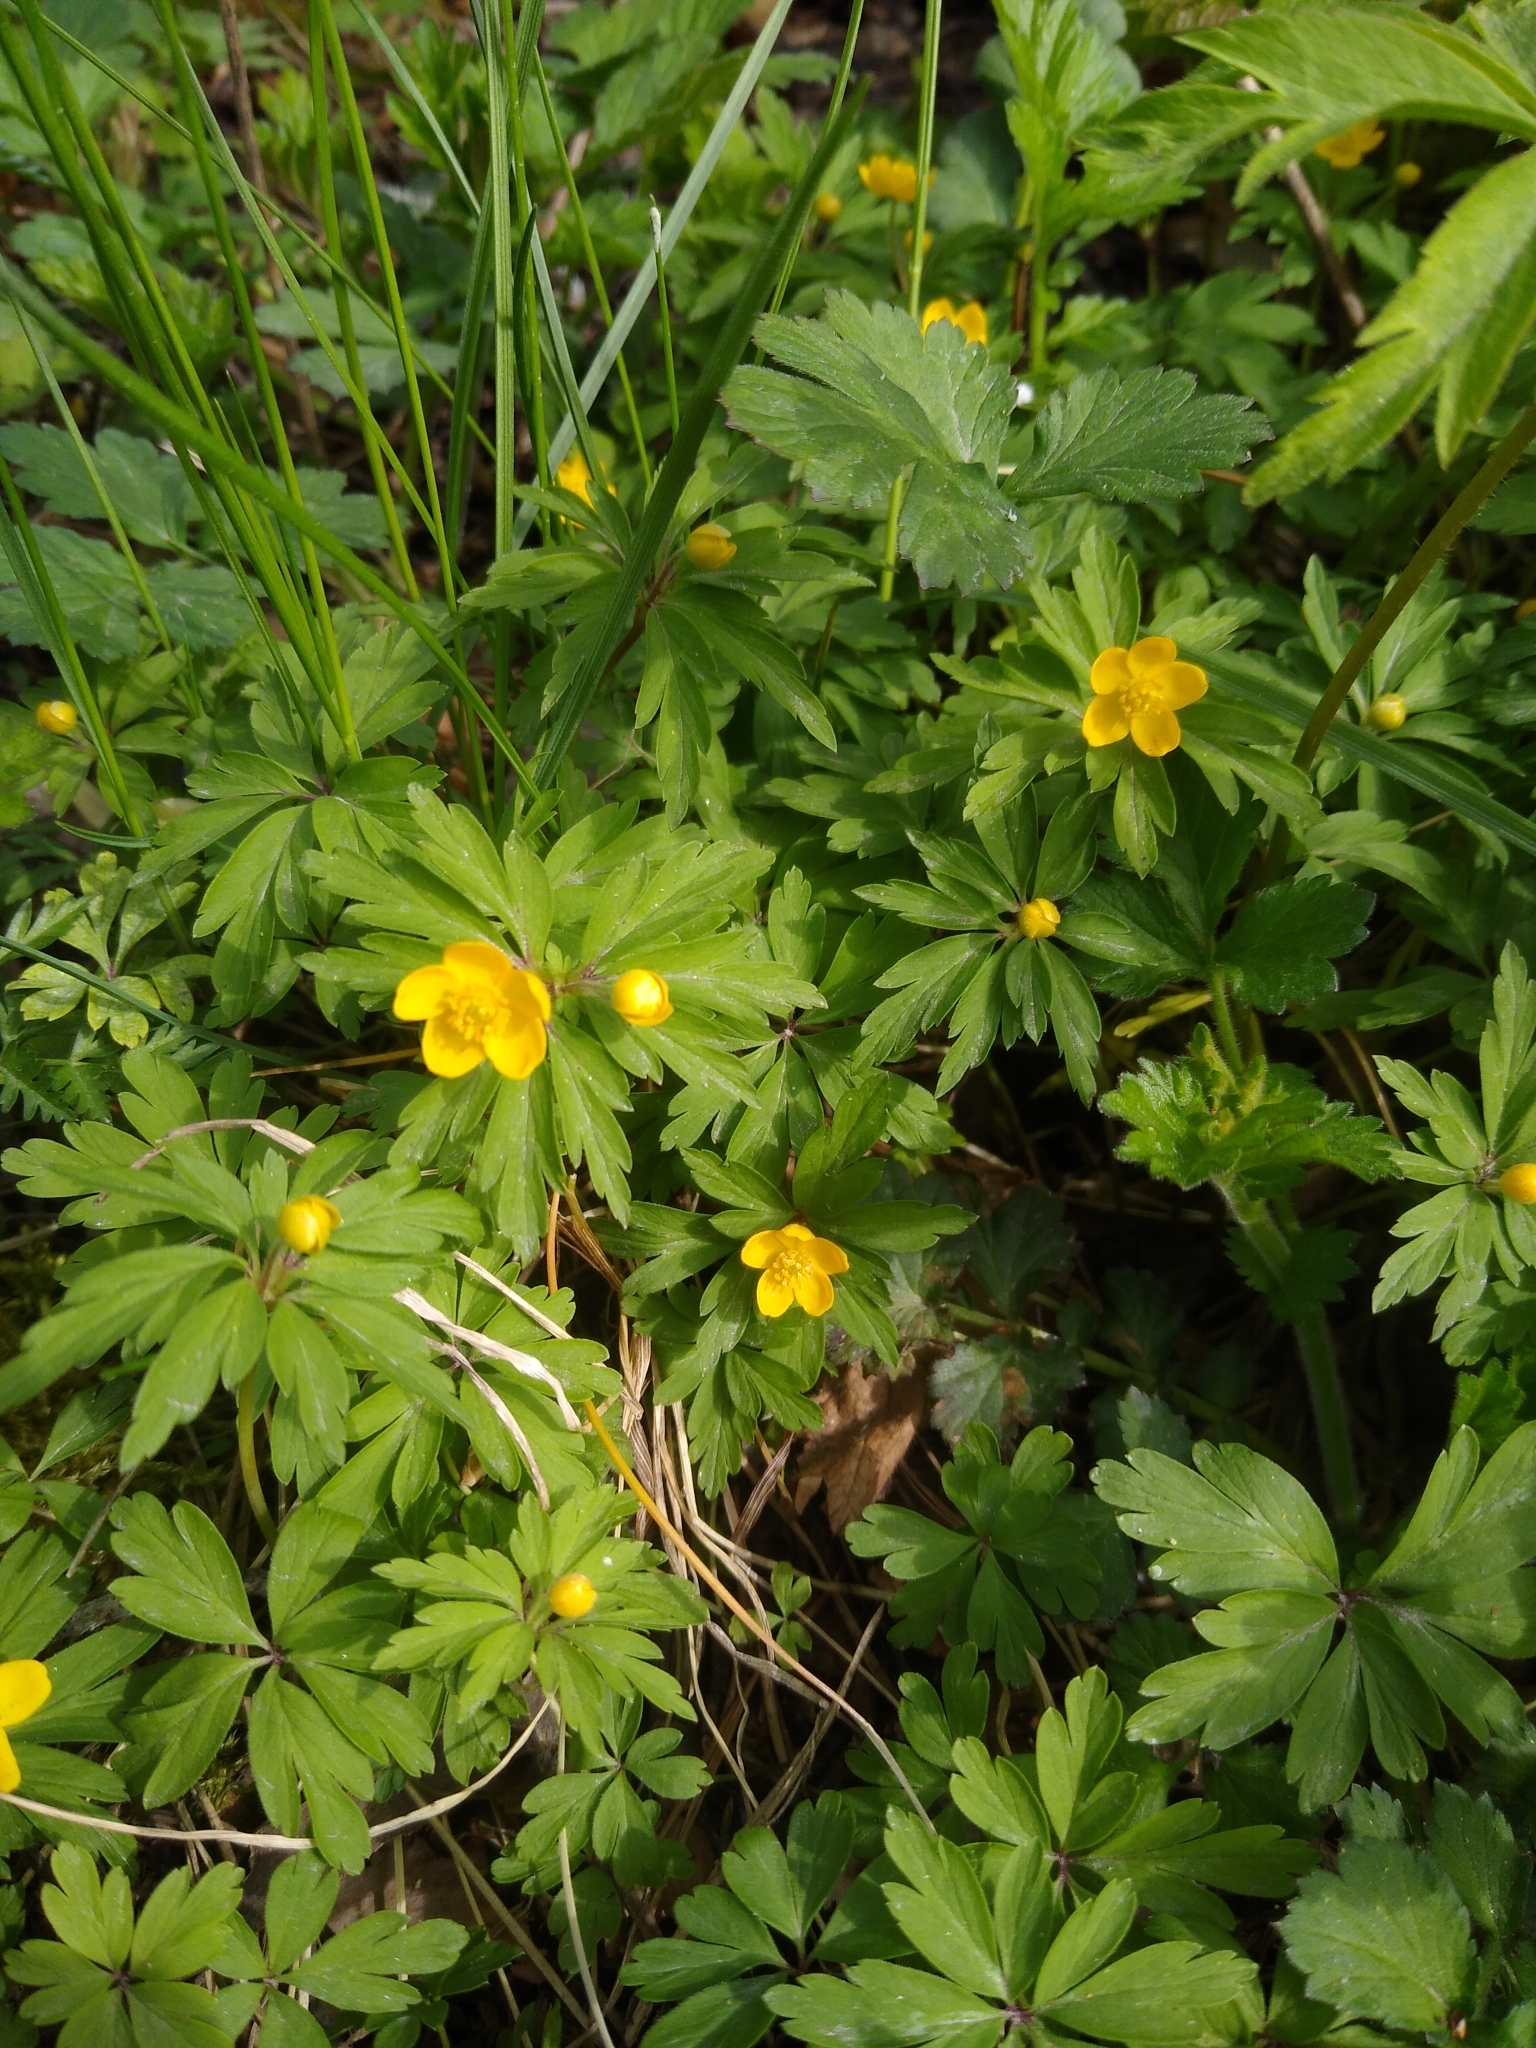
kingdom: Plantae
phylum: Tracheophyta
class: Magnoliopsida
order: Ranunculales
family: Ranunculaceae
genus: Anemone
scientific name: Anemone ranunculoides
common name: Yellow anemone
